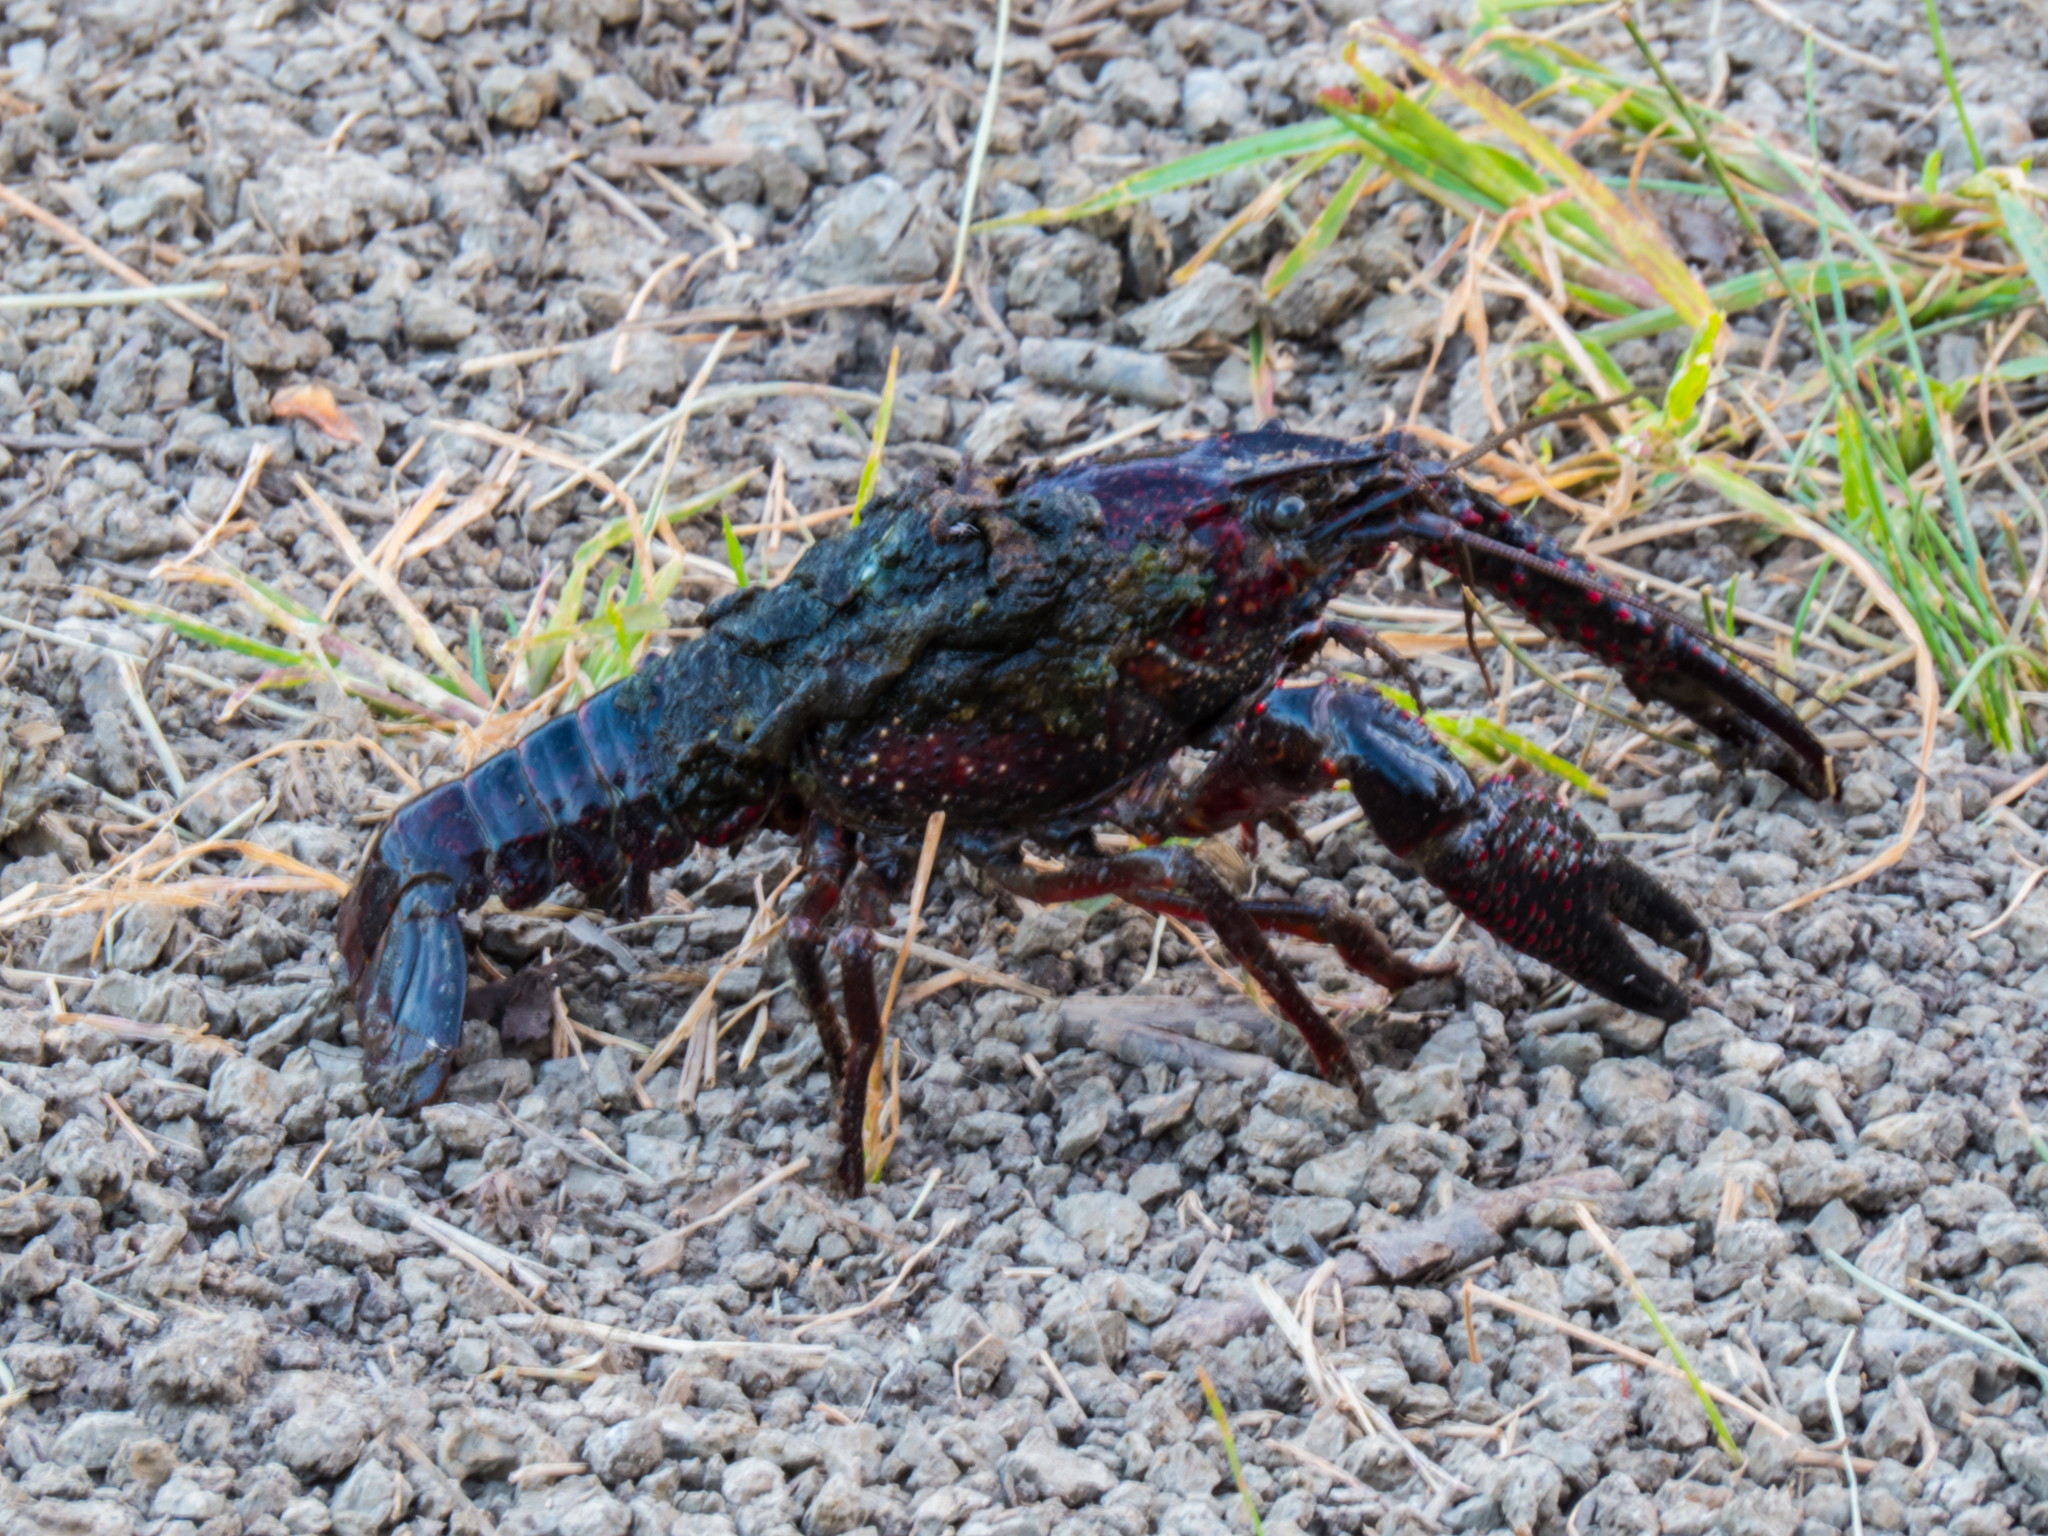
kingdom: Animalia
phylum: Arthropoda
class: Malacostraca
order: Decapoda
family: Cambaridae
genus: Procambarus
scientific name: Procambarus clarkii
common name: Red swamp crayfish
